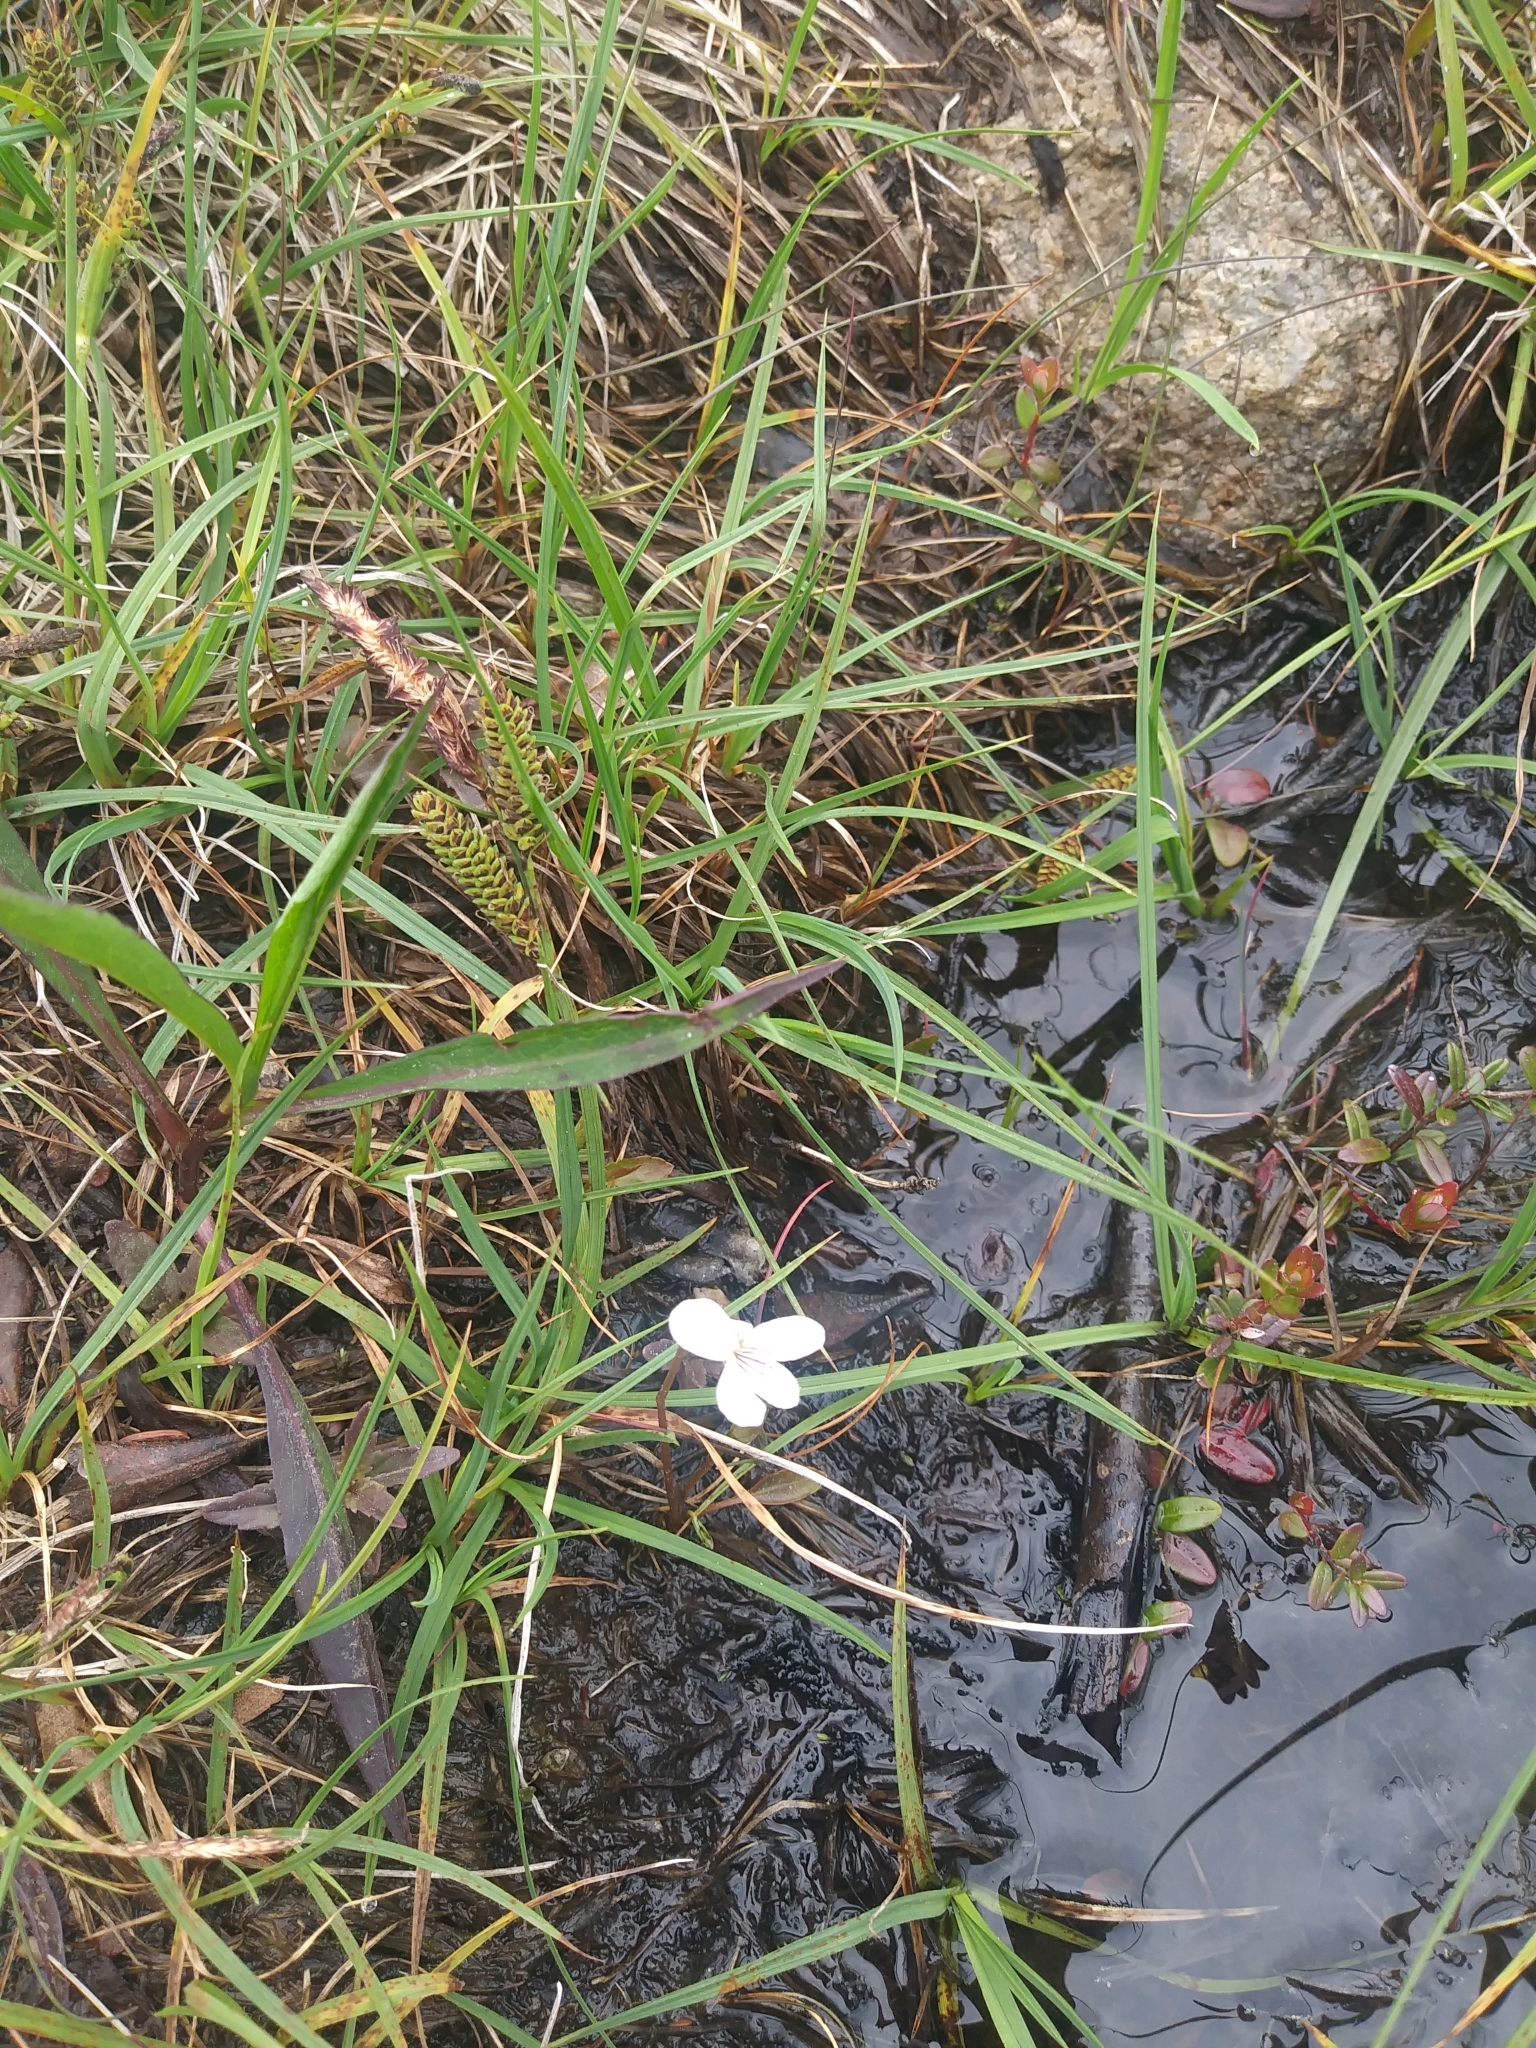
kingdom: Plantae
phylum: Tracheophyta
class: Magnoliopsida
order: Malpighiales
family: Violaceae
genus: Viola
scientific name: Viola lanceolata
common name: Bog white violet
